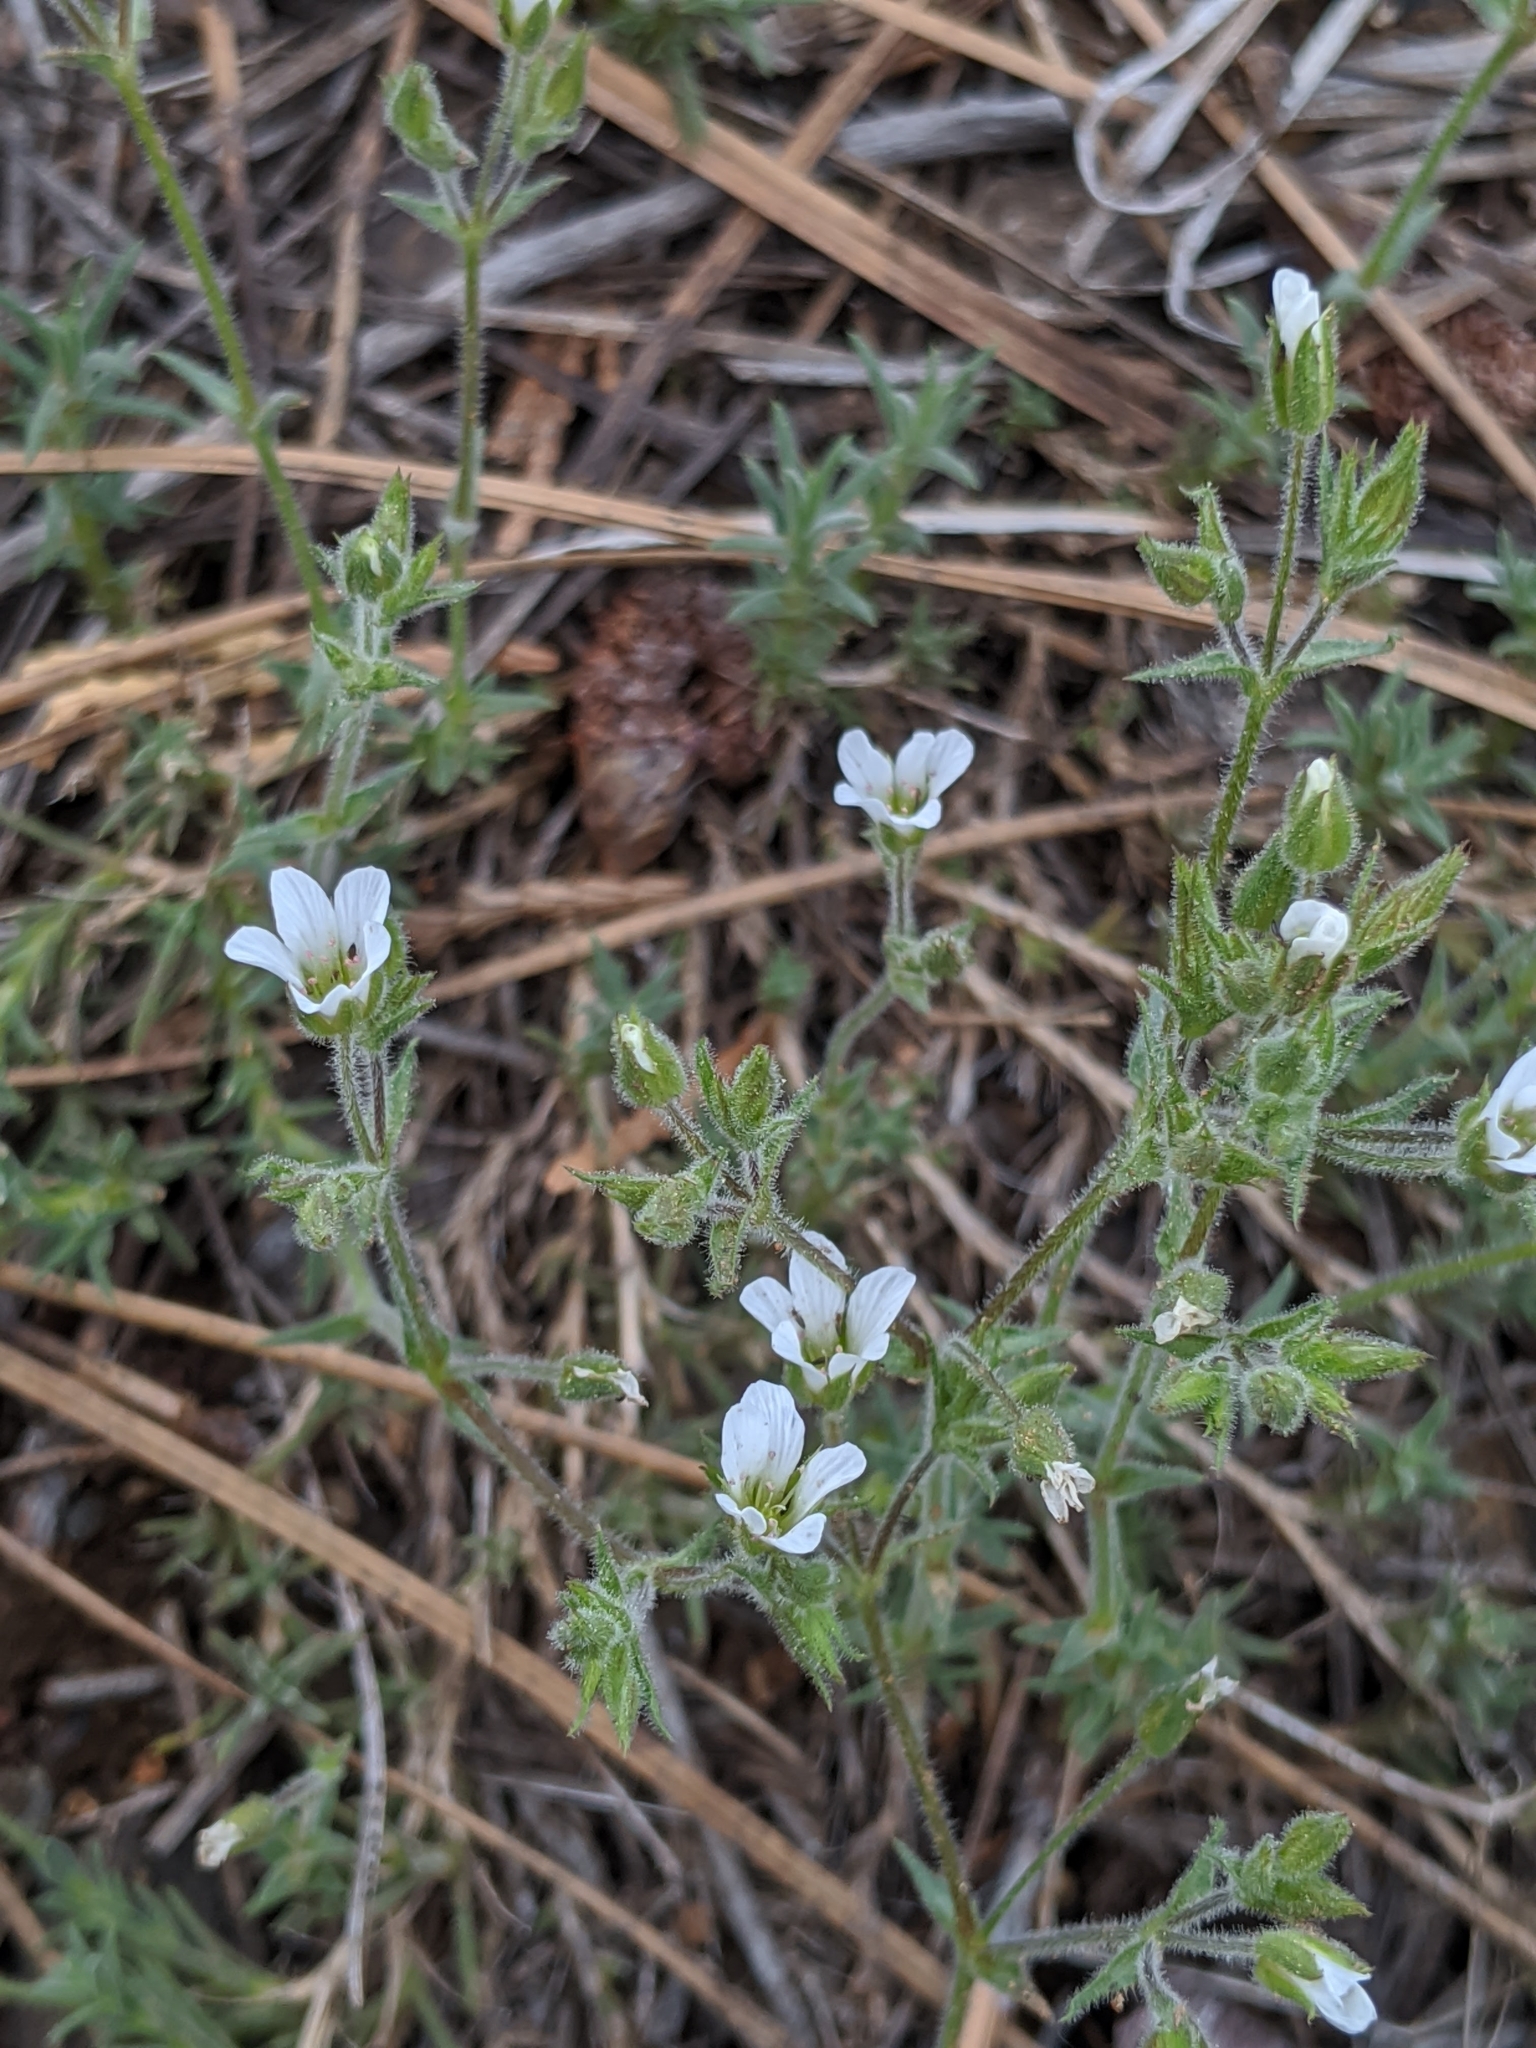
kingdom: Plantae
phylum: Tracheophyta
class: Magnoliopsida
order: Caryophyllales
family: Caryophyllaceae
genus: Sabulina
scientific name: Sabulina nuttallii
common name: Nuttall's stitchwort
